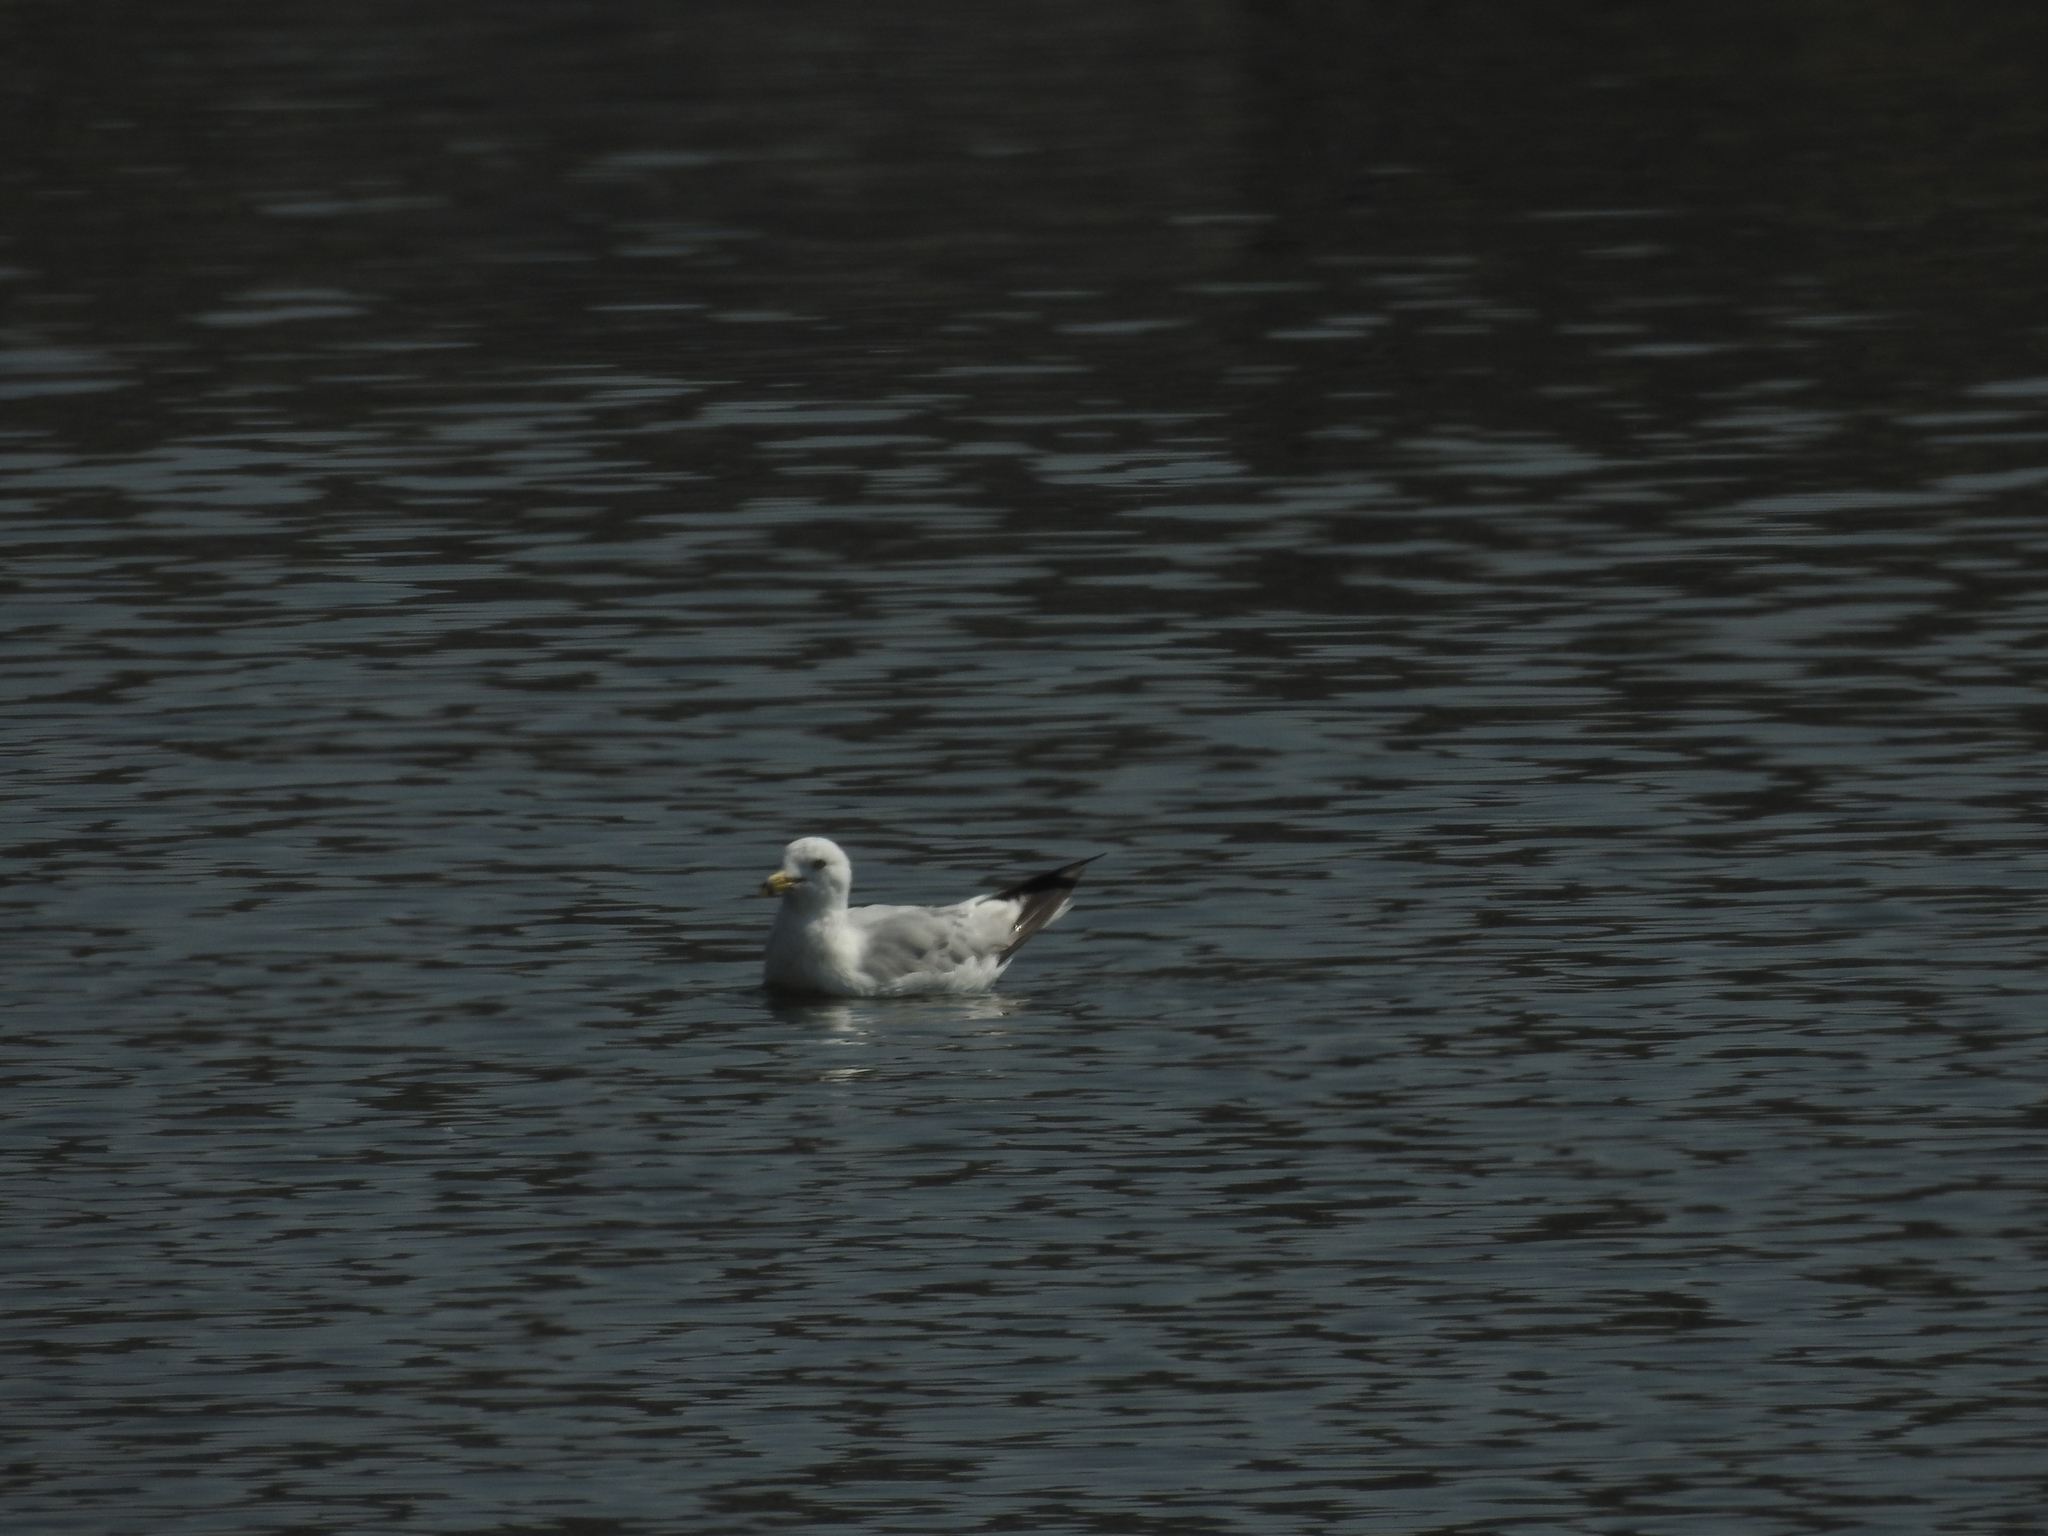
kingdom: Animalia
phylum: Chordata
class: Aves
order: Charadriiformes
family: Laridae
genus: Larus
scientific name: Larus delawarensis
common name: Ring-billed gull
